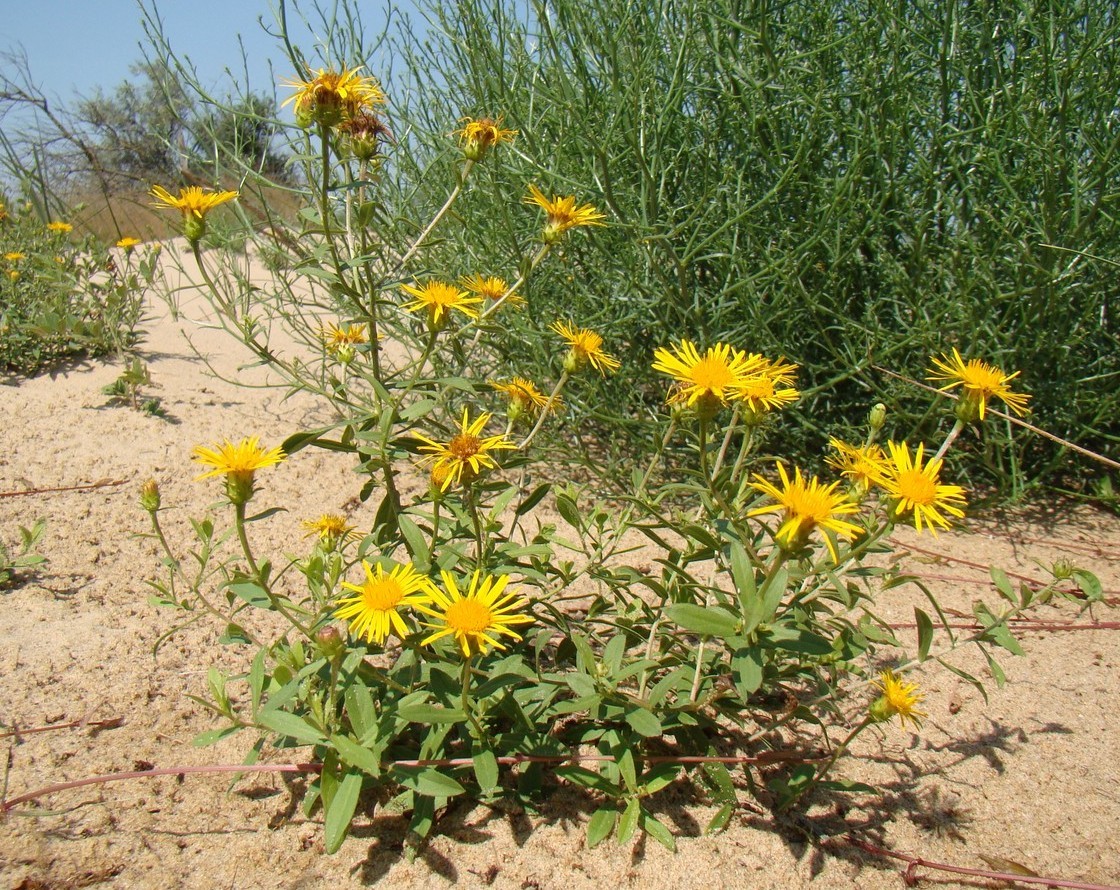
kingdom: Plantae
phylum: Tracheophyta
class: Magnoliopsida
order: Asterales
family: Asteraceae
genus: Pentanema
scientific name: Pentanema sabuletorum
